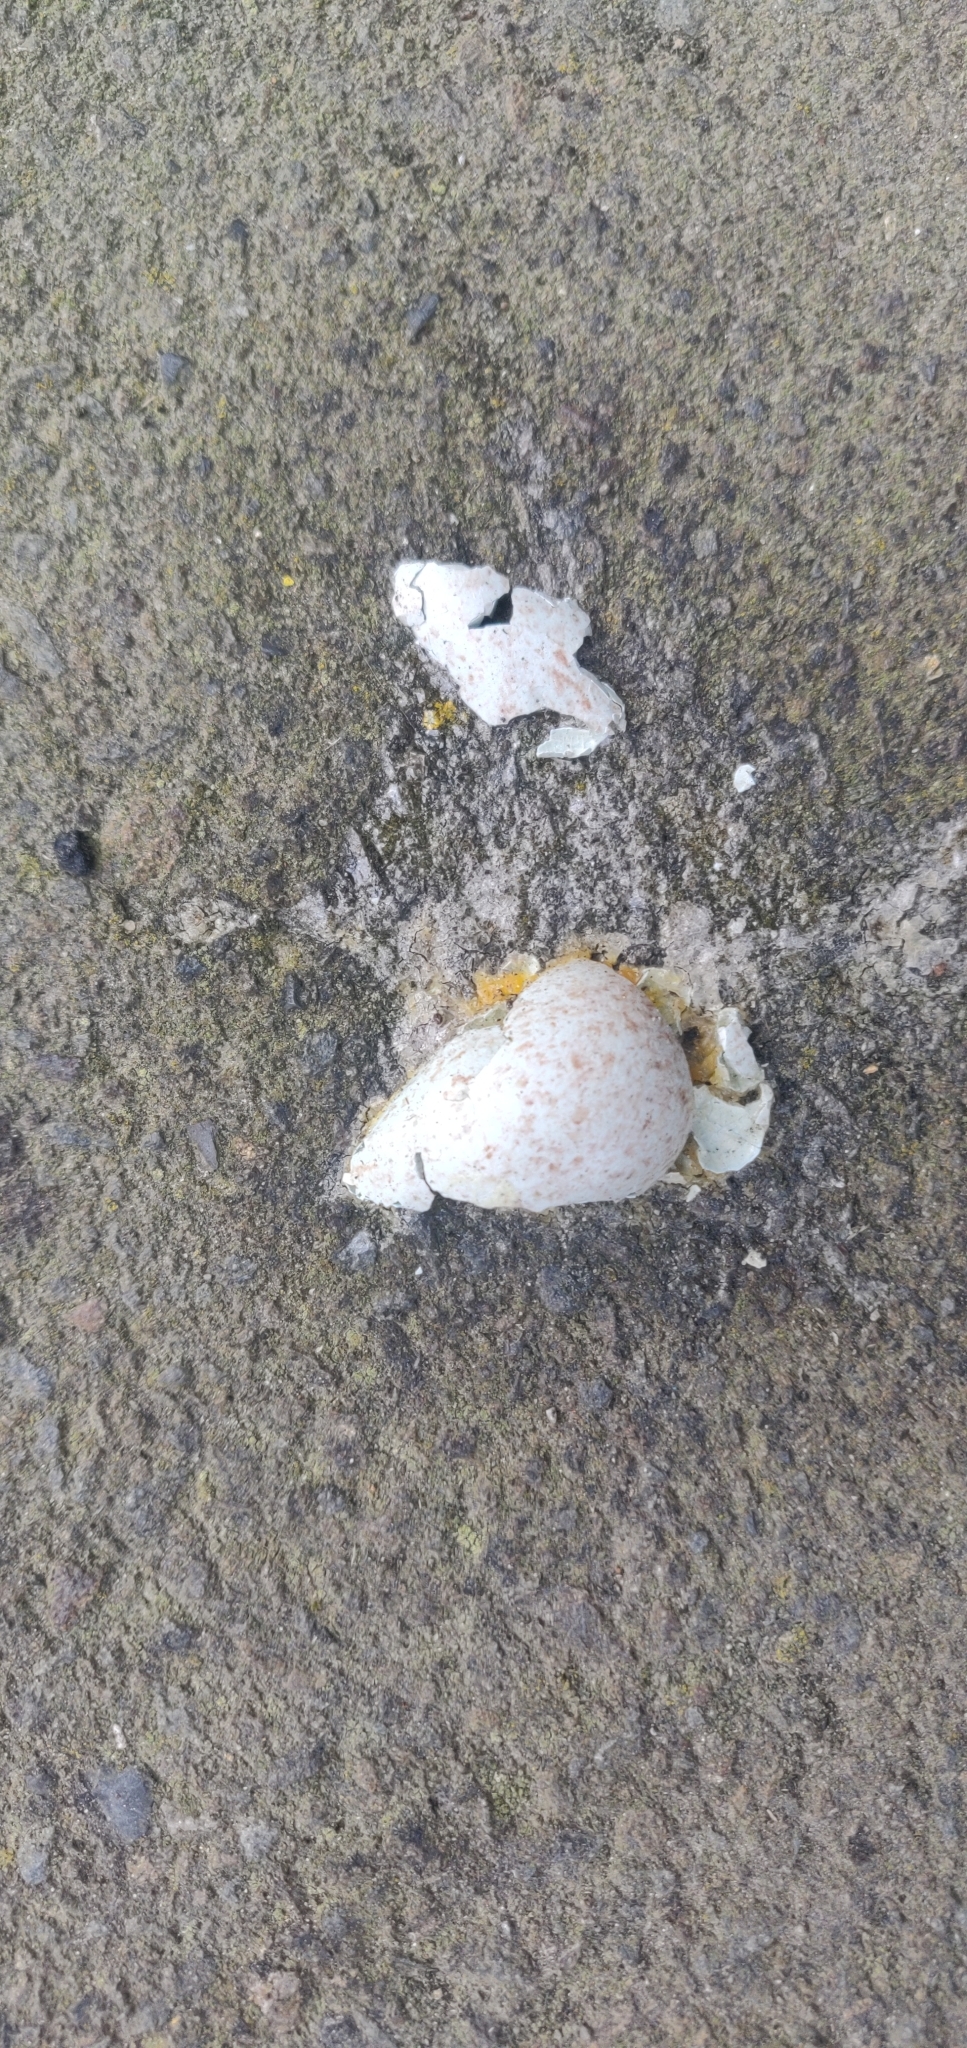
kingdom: Animalia
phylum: Chordata
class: Aves
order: Passeriformes
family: Turdidae
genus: Turdus
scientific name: Turdus merula
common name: Common blackbird
